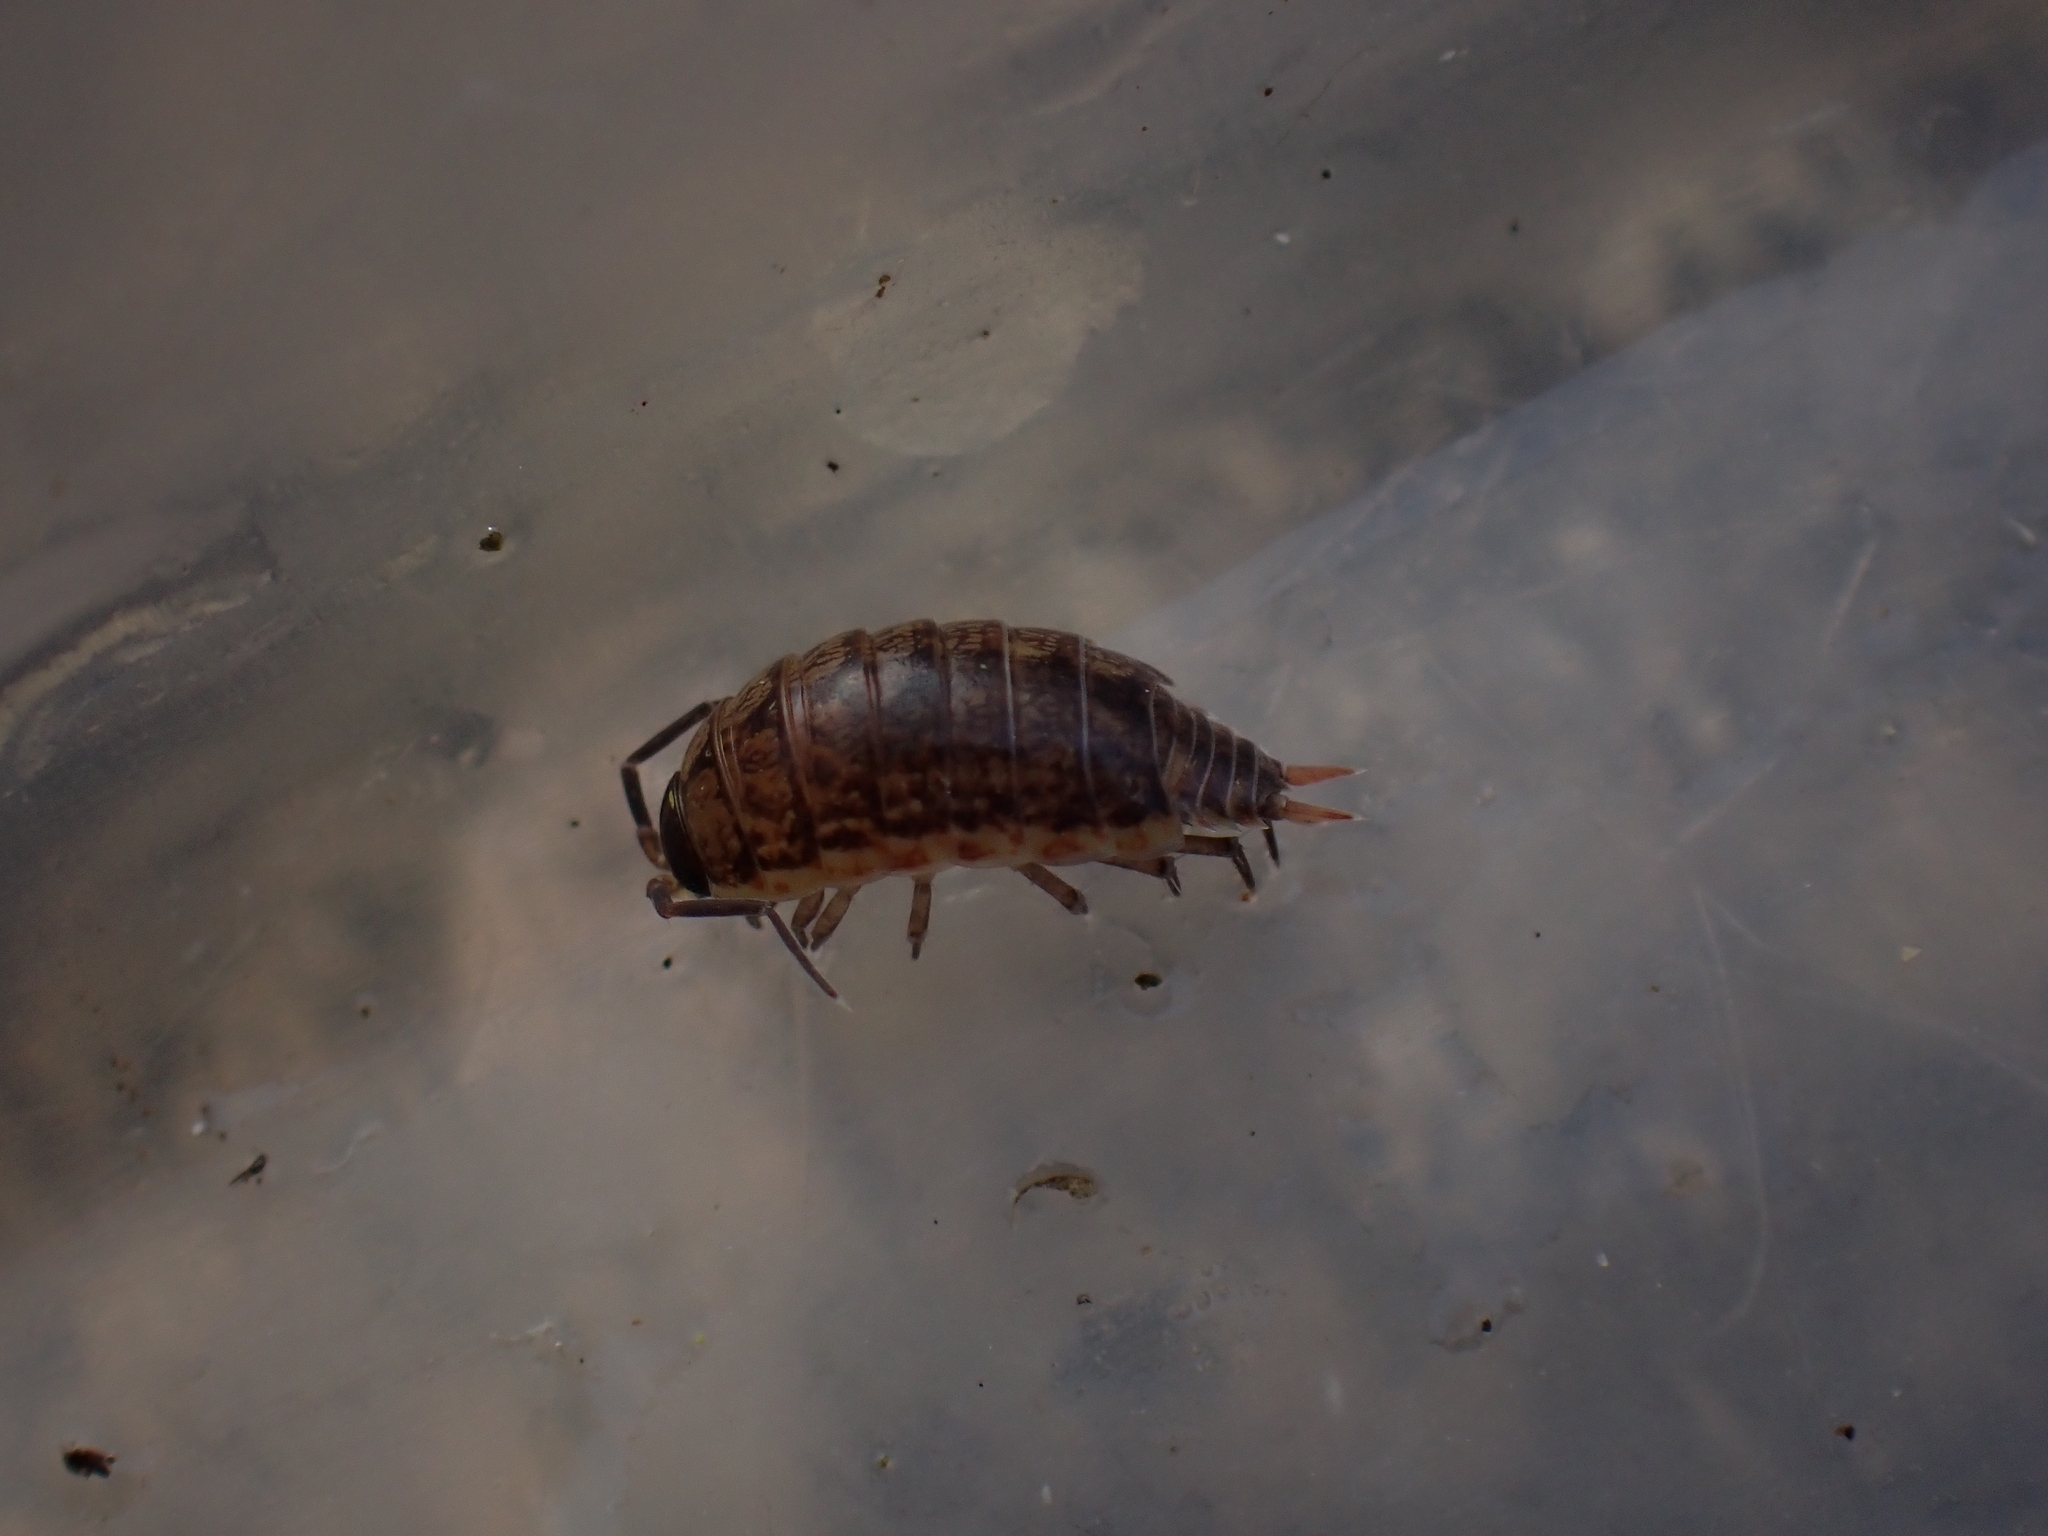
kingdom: Animalia
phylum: Arthropoda
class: Malacostraca
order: Isopoda
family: Philosciidae
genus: Philoscia
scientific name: Philoscia muscorum
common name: Common striped woodlouse
